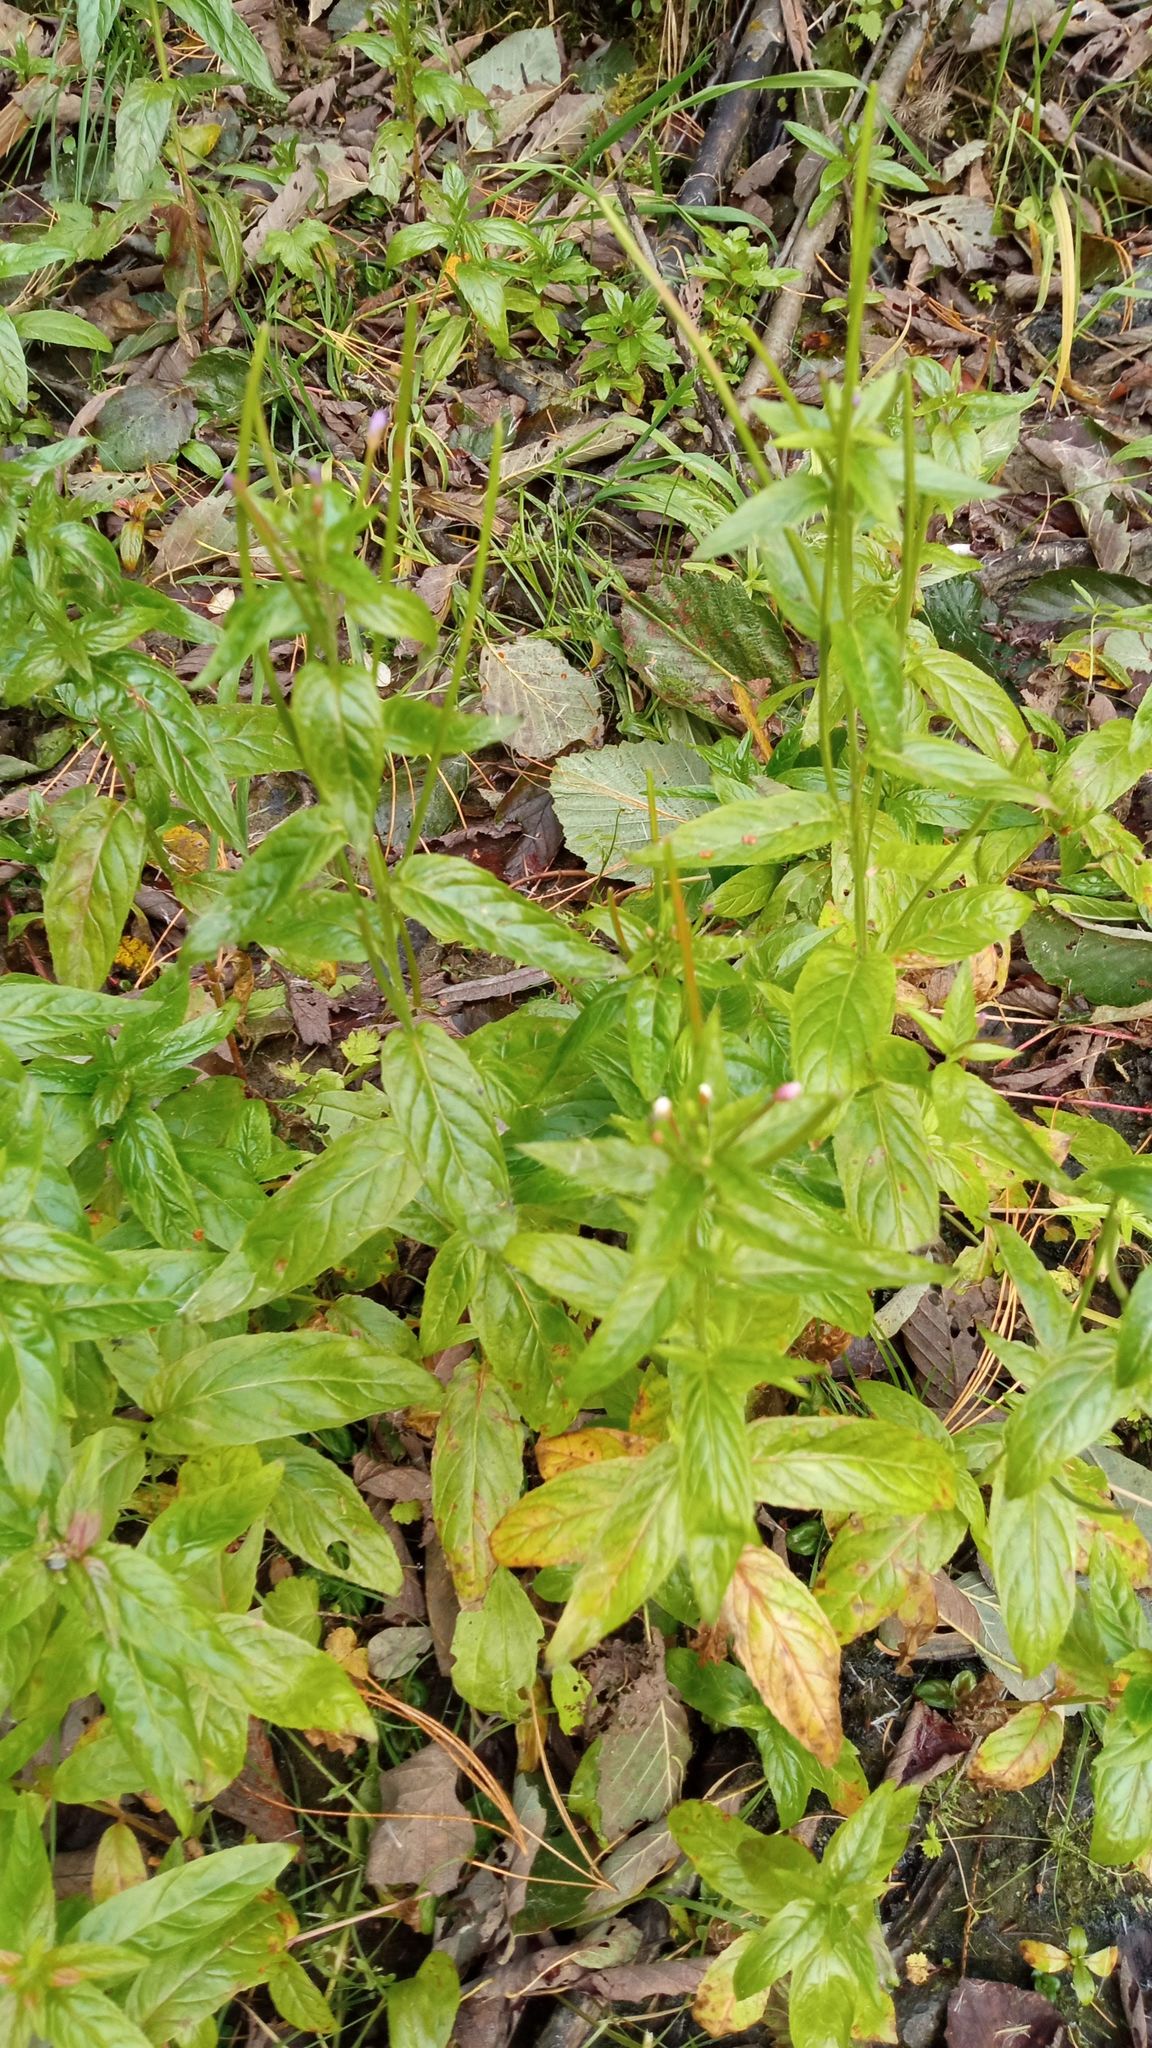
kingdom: Plantae
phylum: Tracheophyta
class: Magnoliopsida
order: Myrtales
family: Onagraceae
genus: Epilobium
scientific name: Epilobium ciliatum
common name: American willowherb
